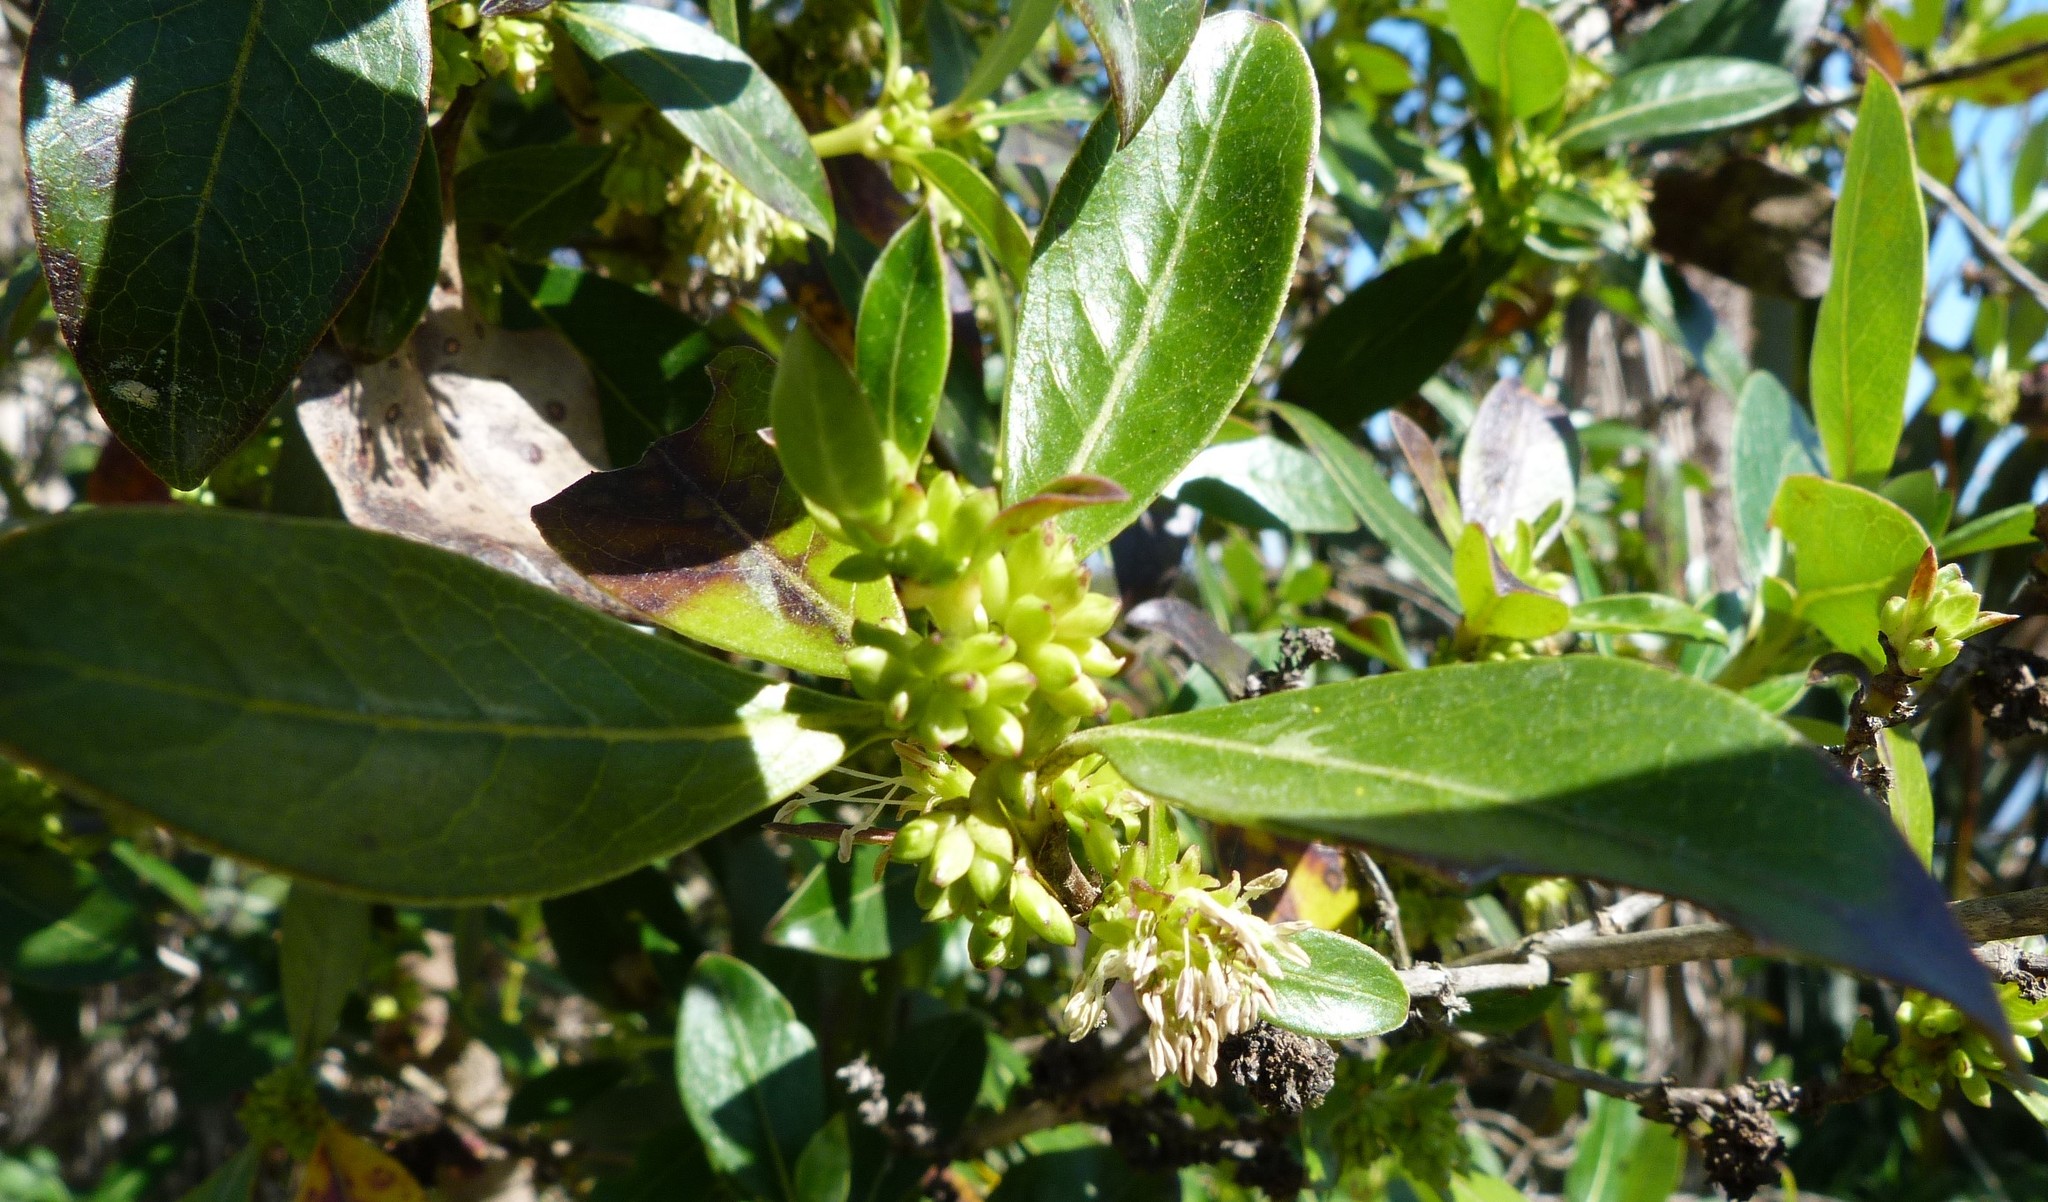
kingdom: Plantae
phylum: Tracheophyta
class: Magnoliopsida
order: Gentianales
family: Rubiaceae
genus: Coprosma
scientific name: Coprosma robusta
